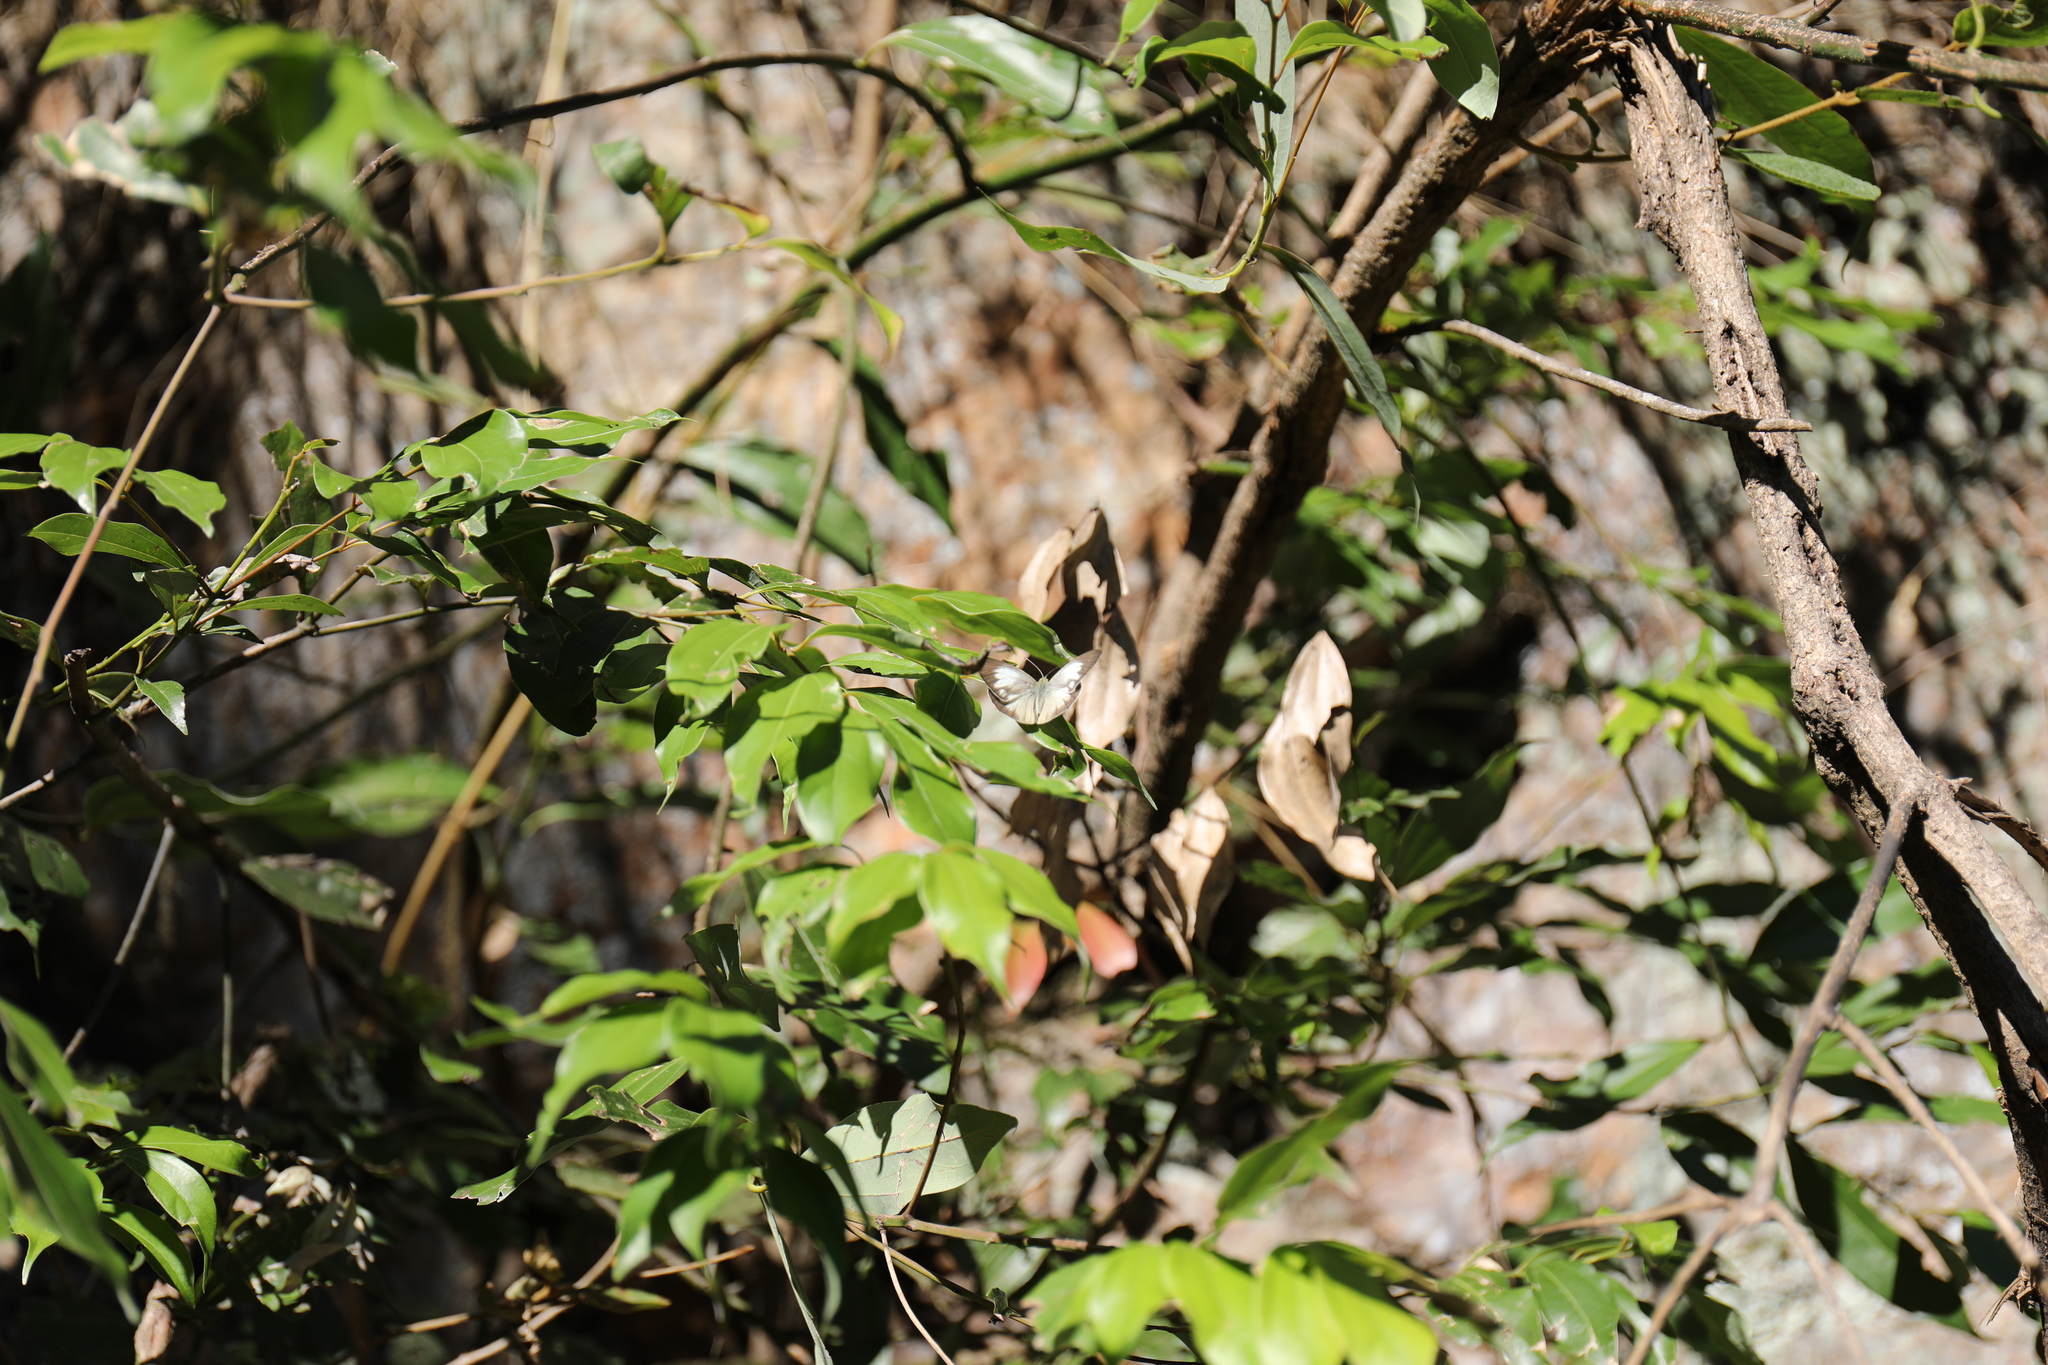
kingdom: Animalia
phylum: Arthropoda
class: Insecta
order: Lepidoptera
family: Lycaenidae
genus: Tongeia
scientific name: Tongeia hainani
